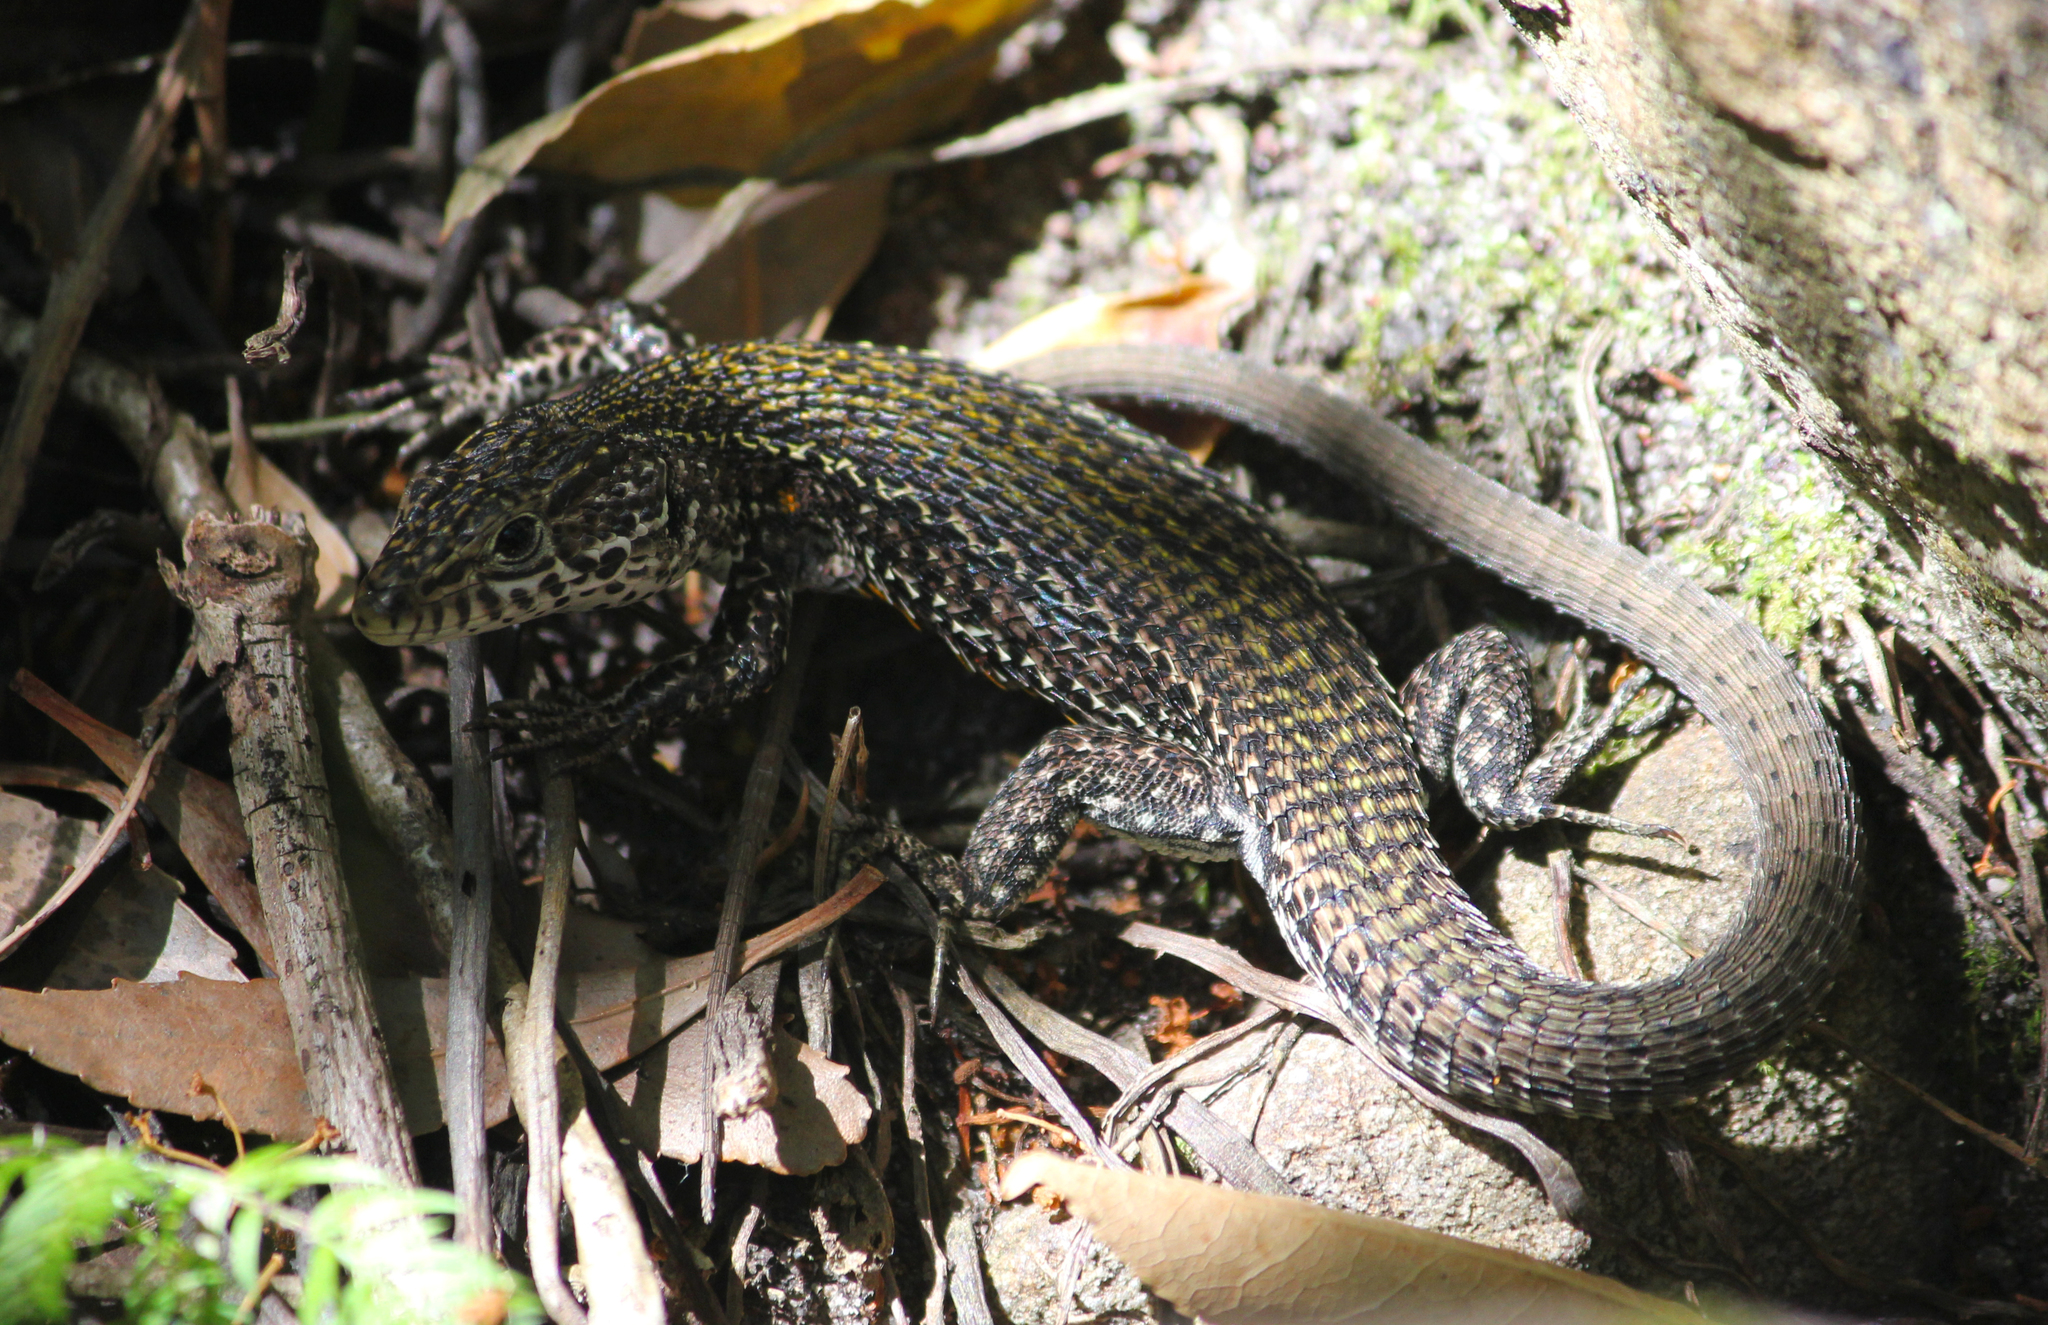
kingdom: Animalia
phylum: Chordata
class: Squamata
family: Lacertidae
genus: Tropidosaura
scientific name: Tropidosaura gularis
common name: Cape mountain lizard
